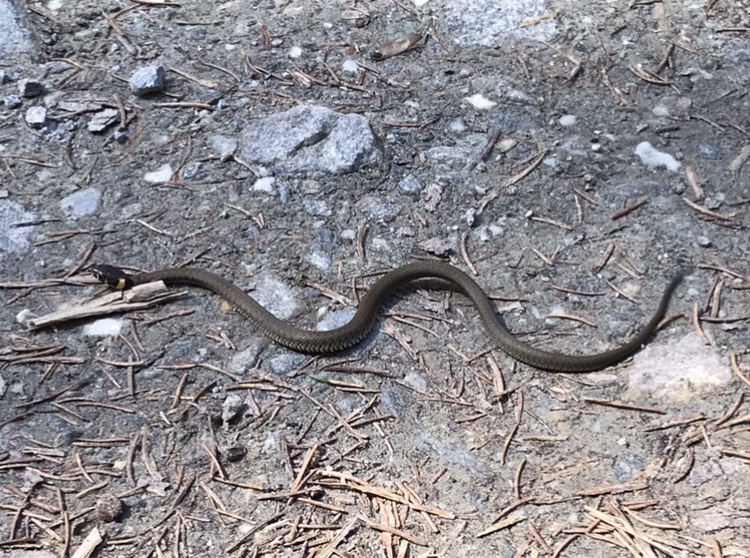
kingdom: Animalia
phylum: Chordata
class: Squamata
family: Colubridae
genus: Natrix
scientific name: Natrix natrix
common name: Grass snake
